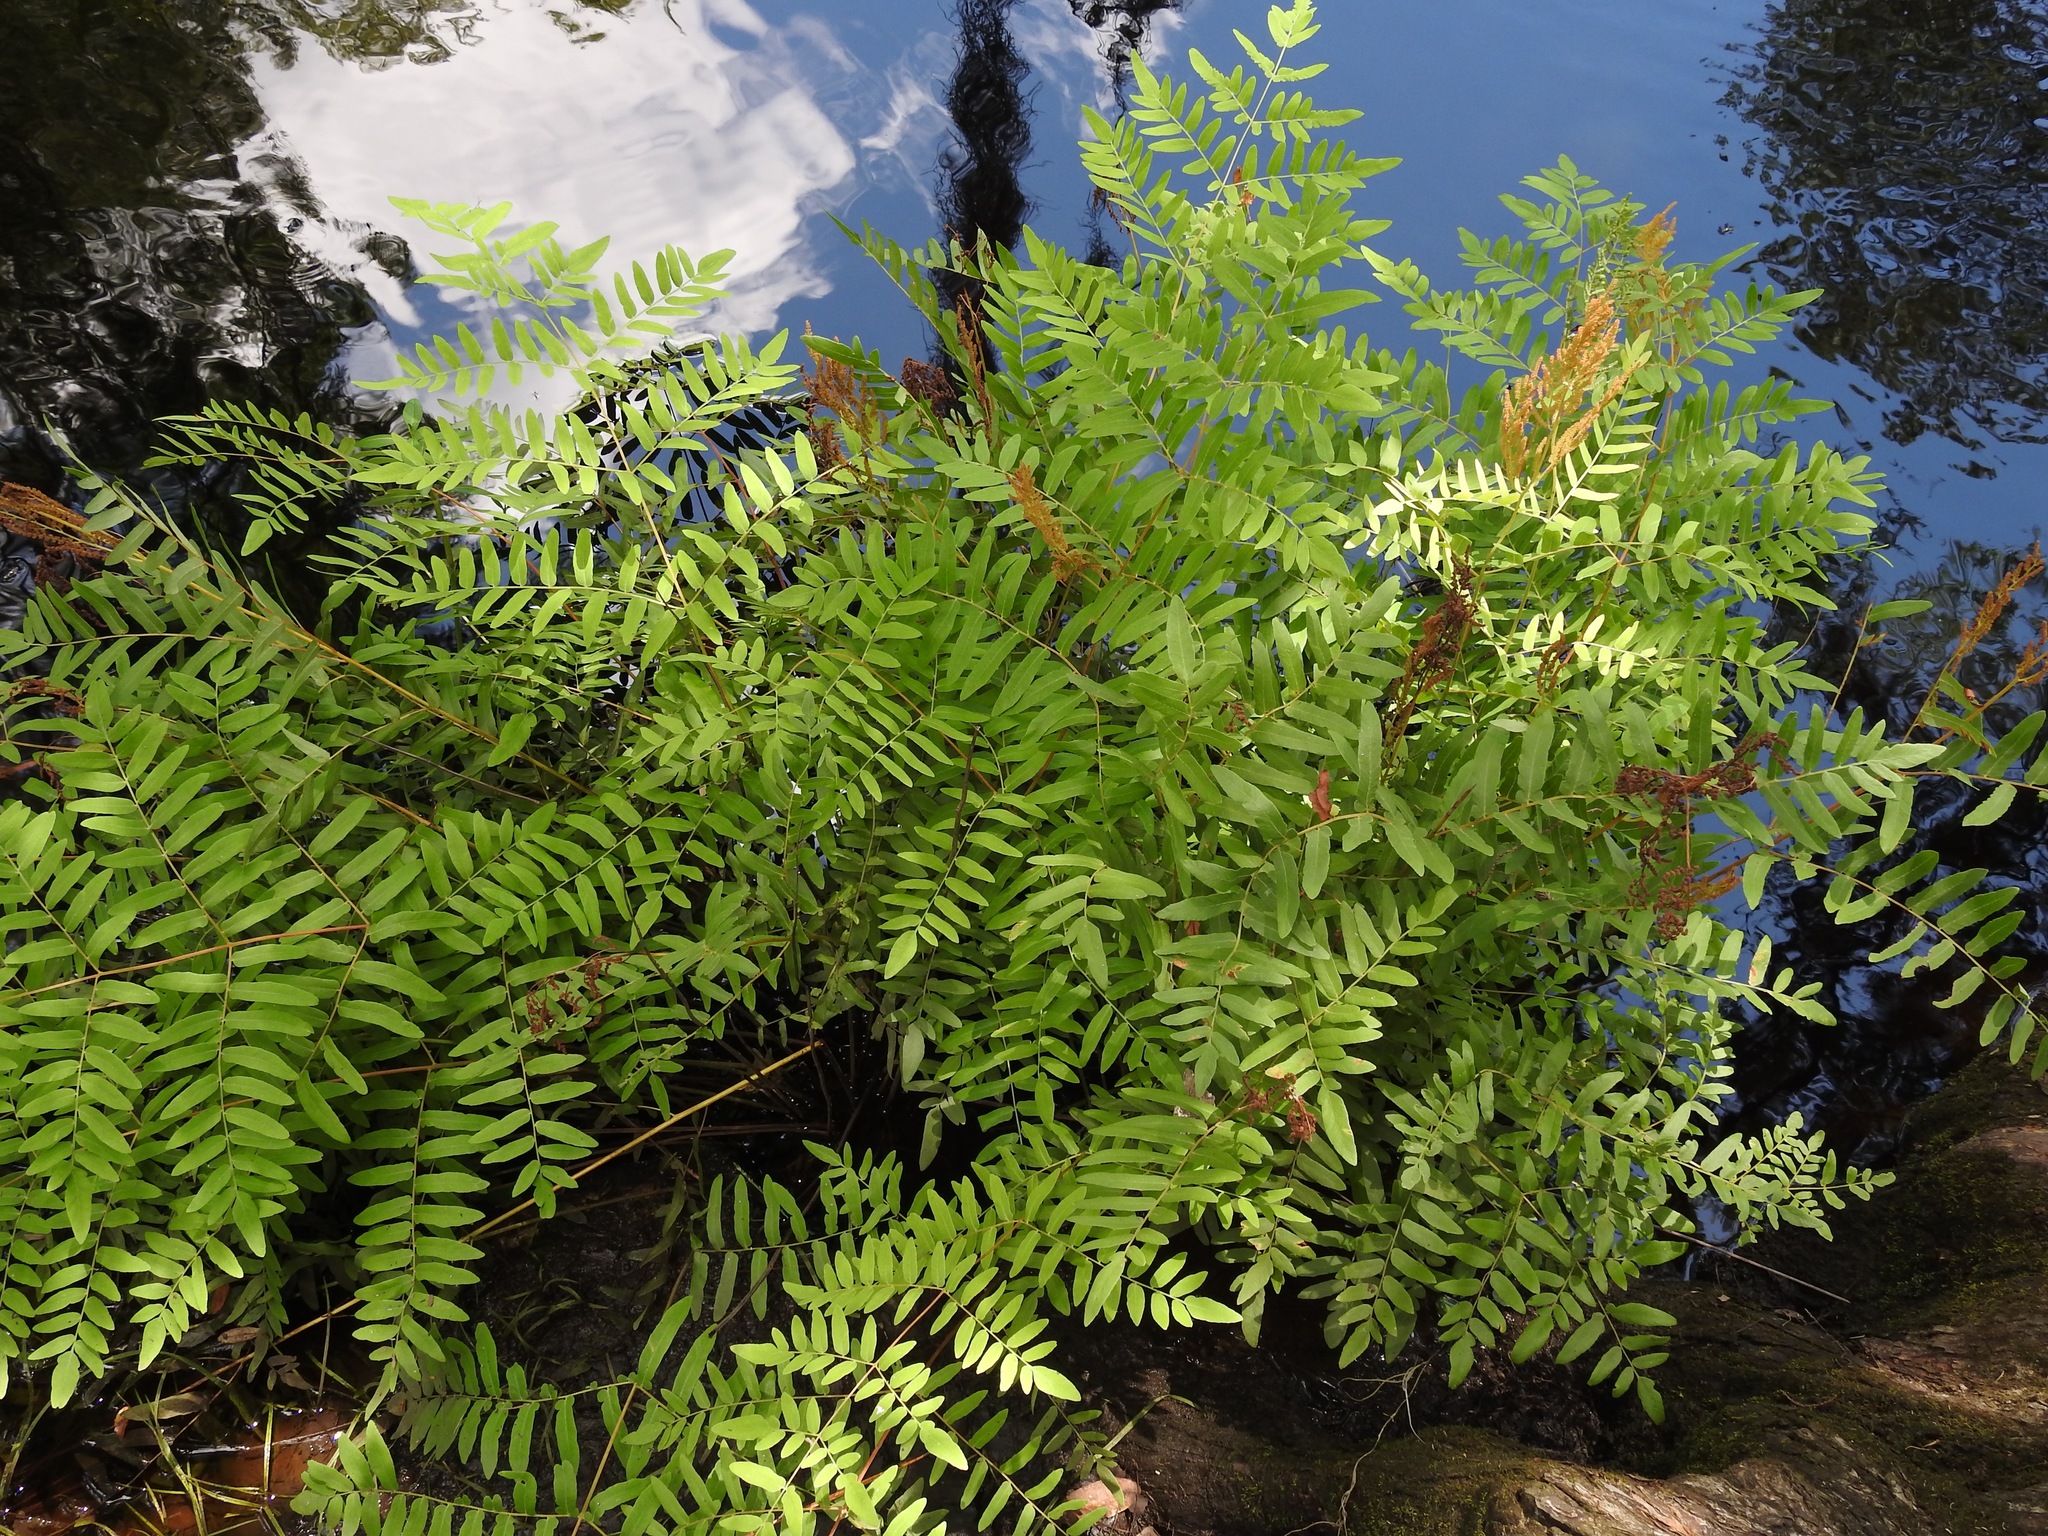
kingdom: Plantae
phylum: Tracheophyta
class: Polypodiopsida
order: Osmundales
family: Osmundaceae
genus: Osmunda
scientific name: Osmunda spectabilis
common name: American royal fern
